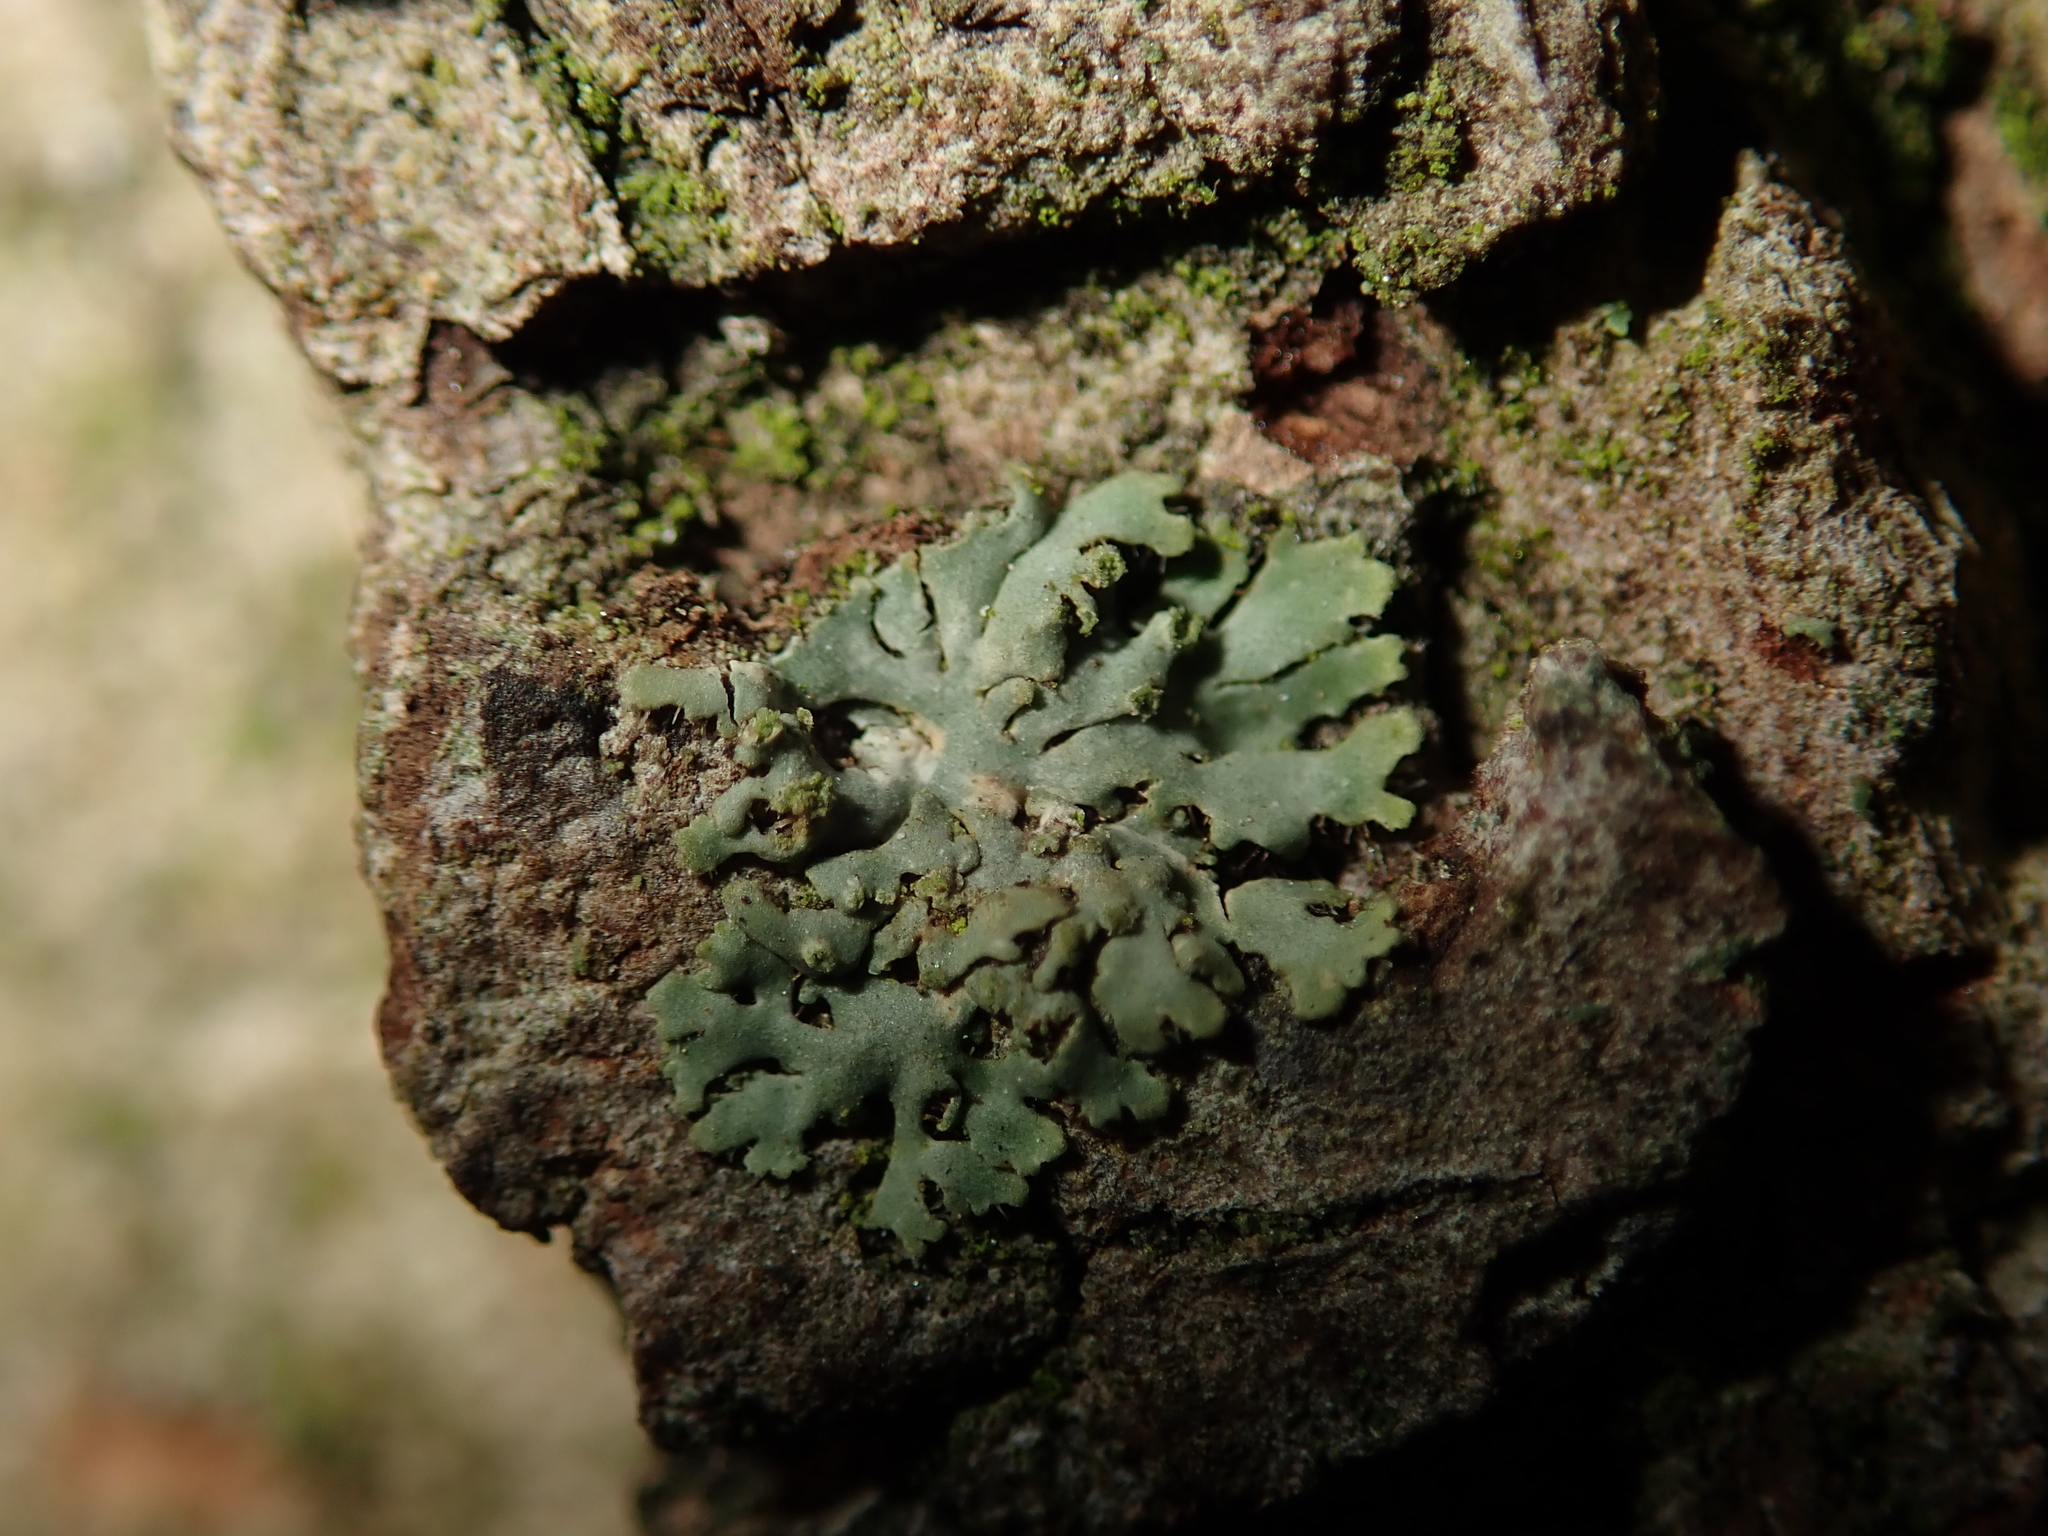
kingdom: Fungi
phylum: Ascomycota
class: Lecanoromycetes
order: Caliciales
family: Physciaceae
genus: Phaeophyscia
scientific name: Phaeophyscia orbicularis
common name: Mealy shadow lichen
